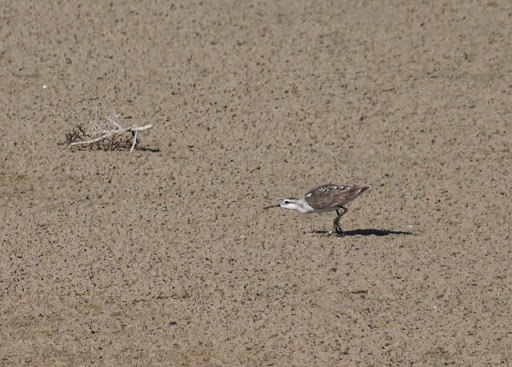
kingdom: Animalia
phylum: Chordata
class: Aves
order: Charadriiformes
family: Scolopacidae
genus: Phalaropus
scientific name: Phalaropus tricolor
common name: Wilson's phalarope
